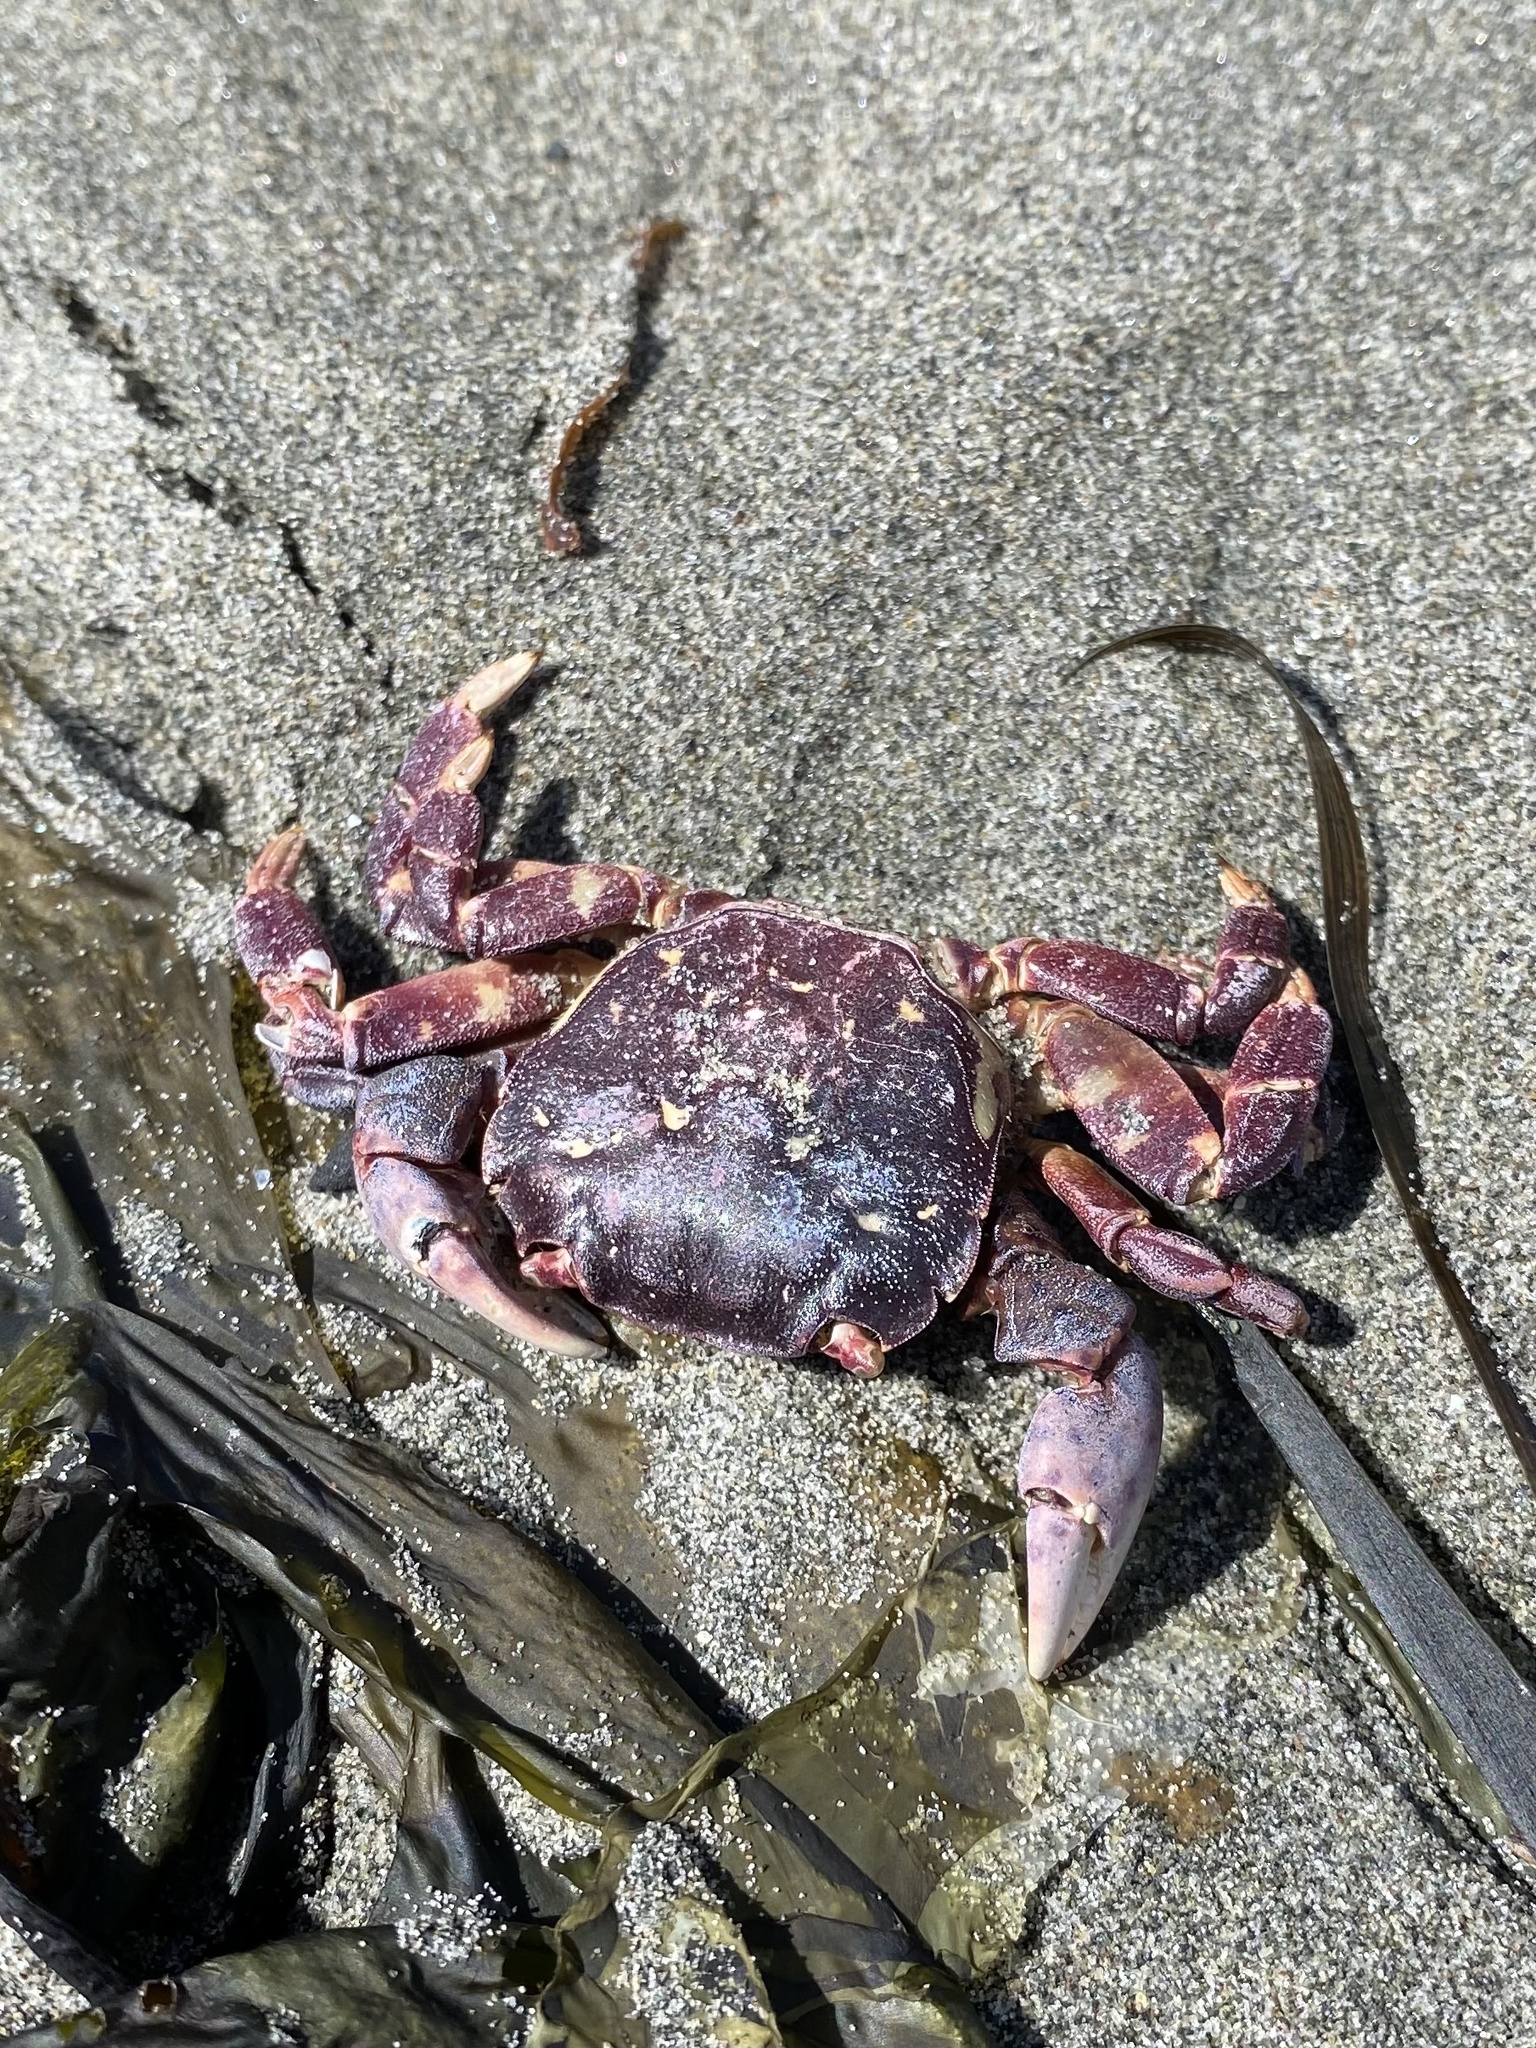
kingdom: Animalia
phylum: Arthropoda
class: Malacostraca
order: Decapoda
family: Varunidae
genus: Hemigrapsus
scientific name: Hemigrapsus nudus
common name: Purple shore crab
